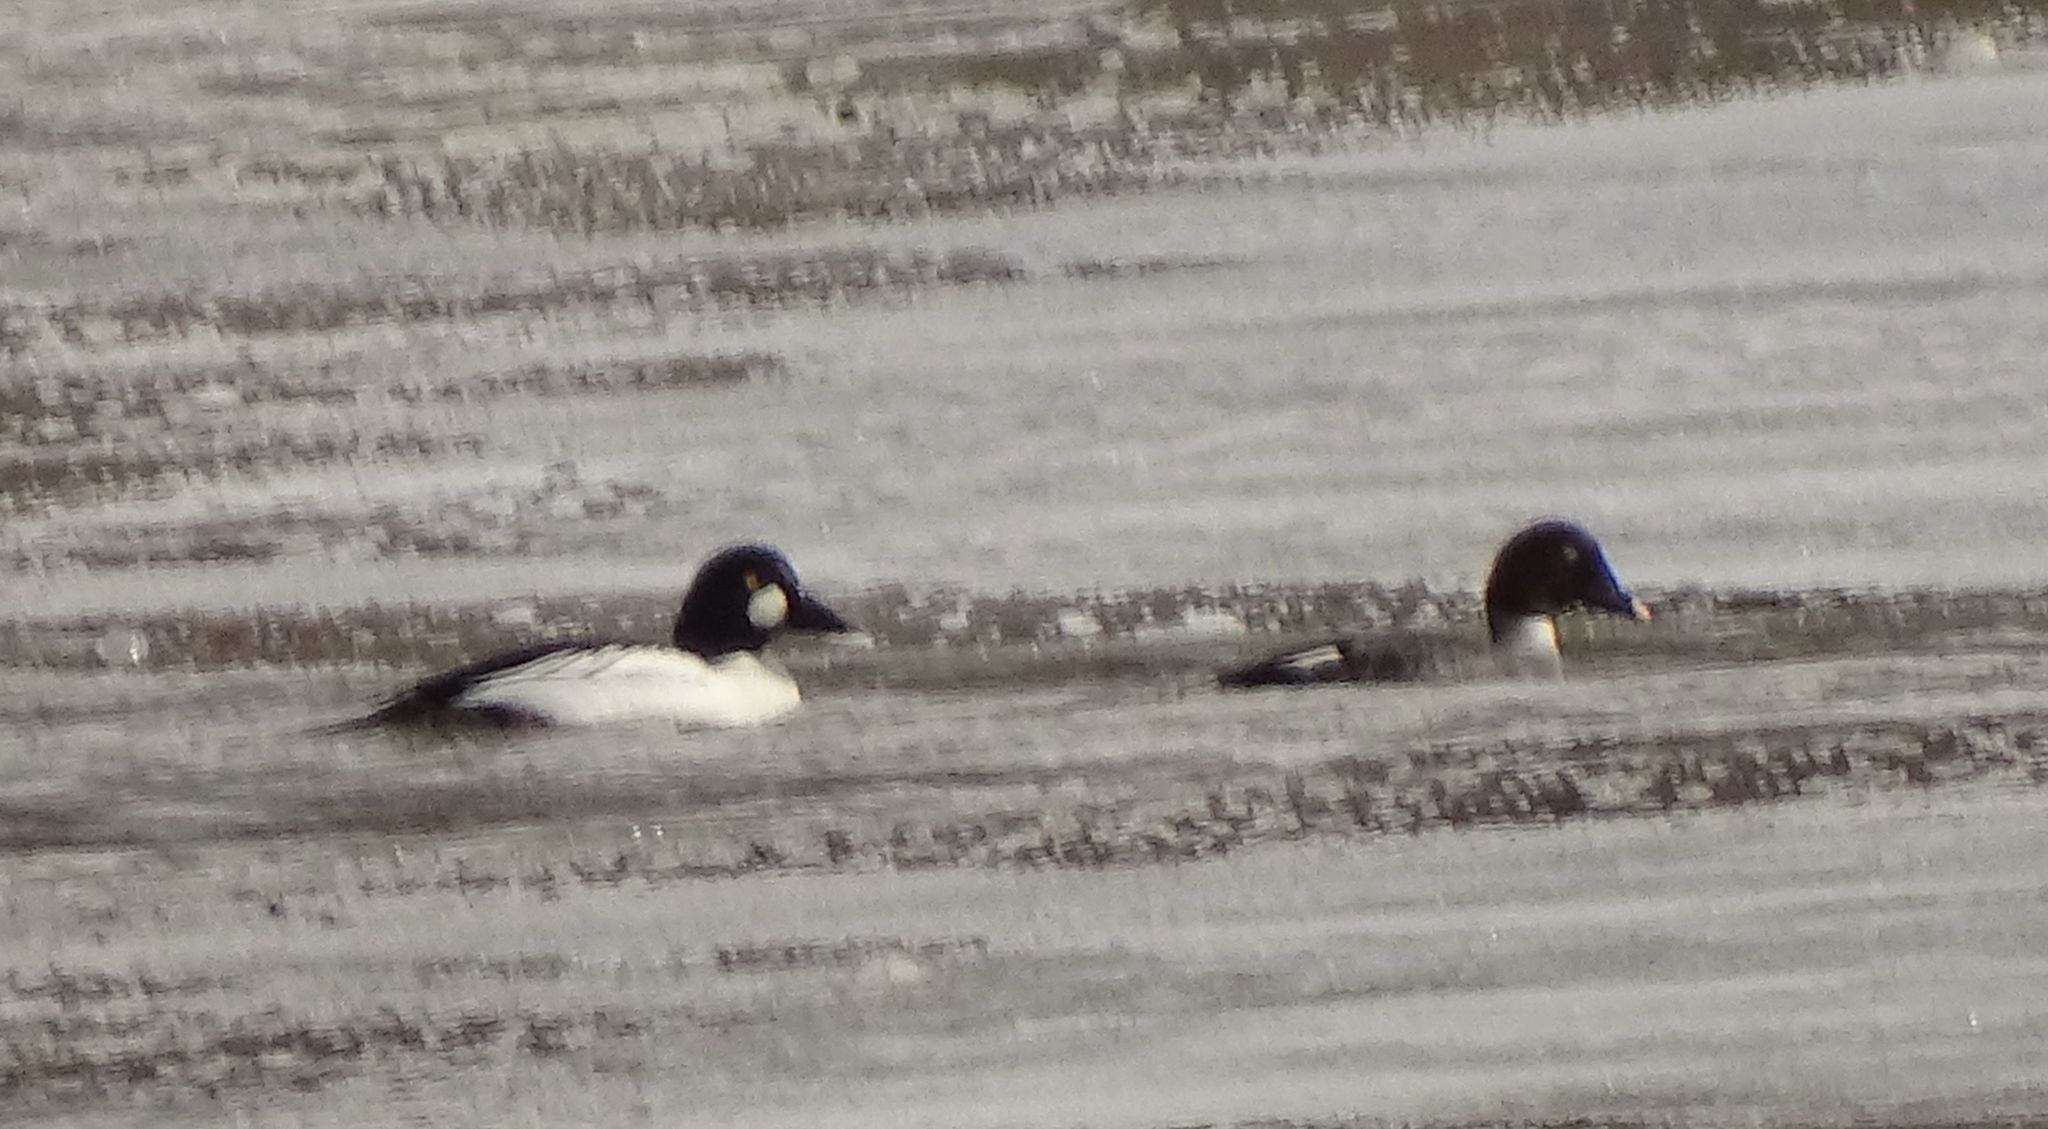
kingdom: Animalia
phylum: Chordata
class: Aves
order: Anseriformes
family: Anatidae
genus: Bucephala
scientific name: Bucephala clangula
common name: Common goldeneye
